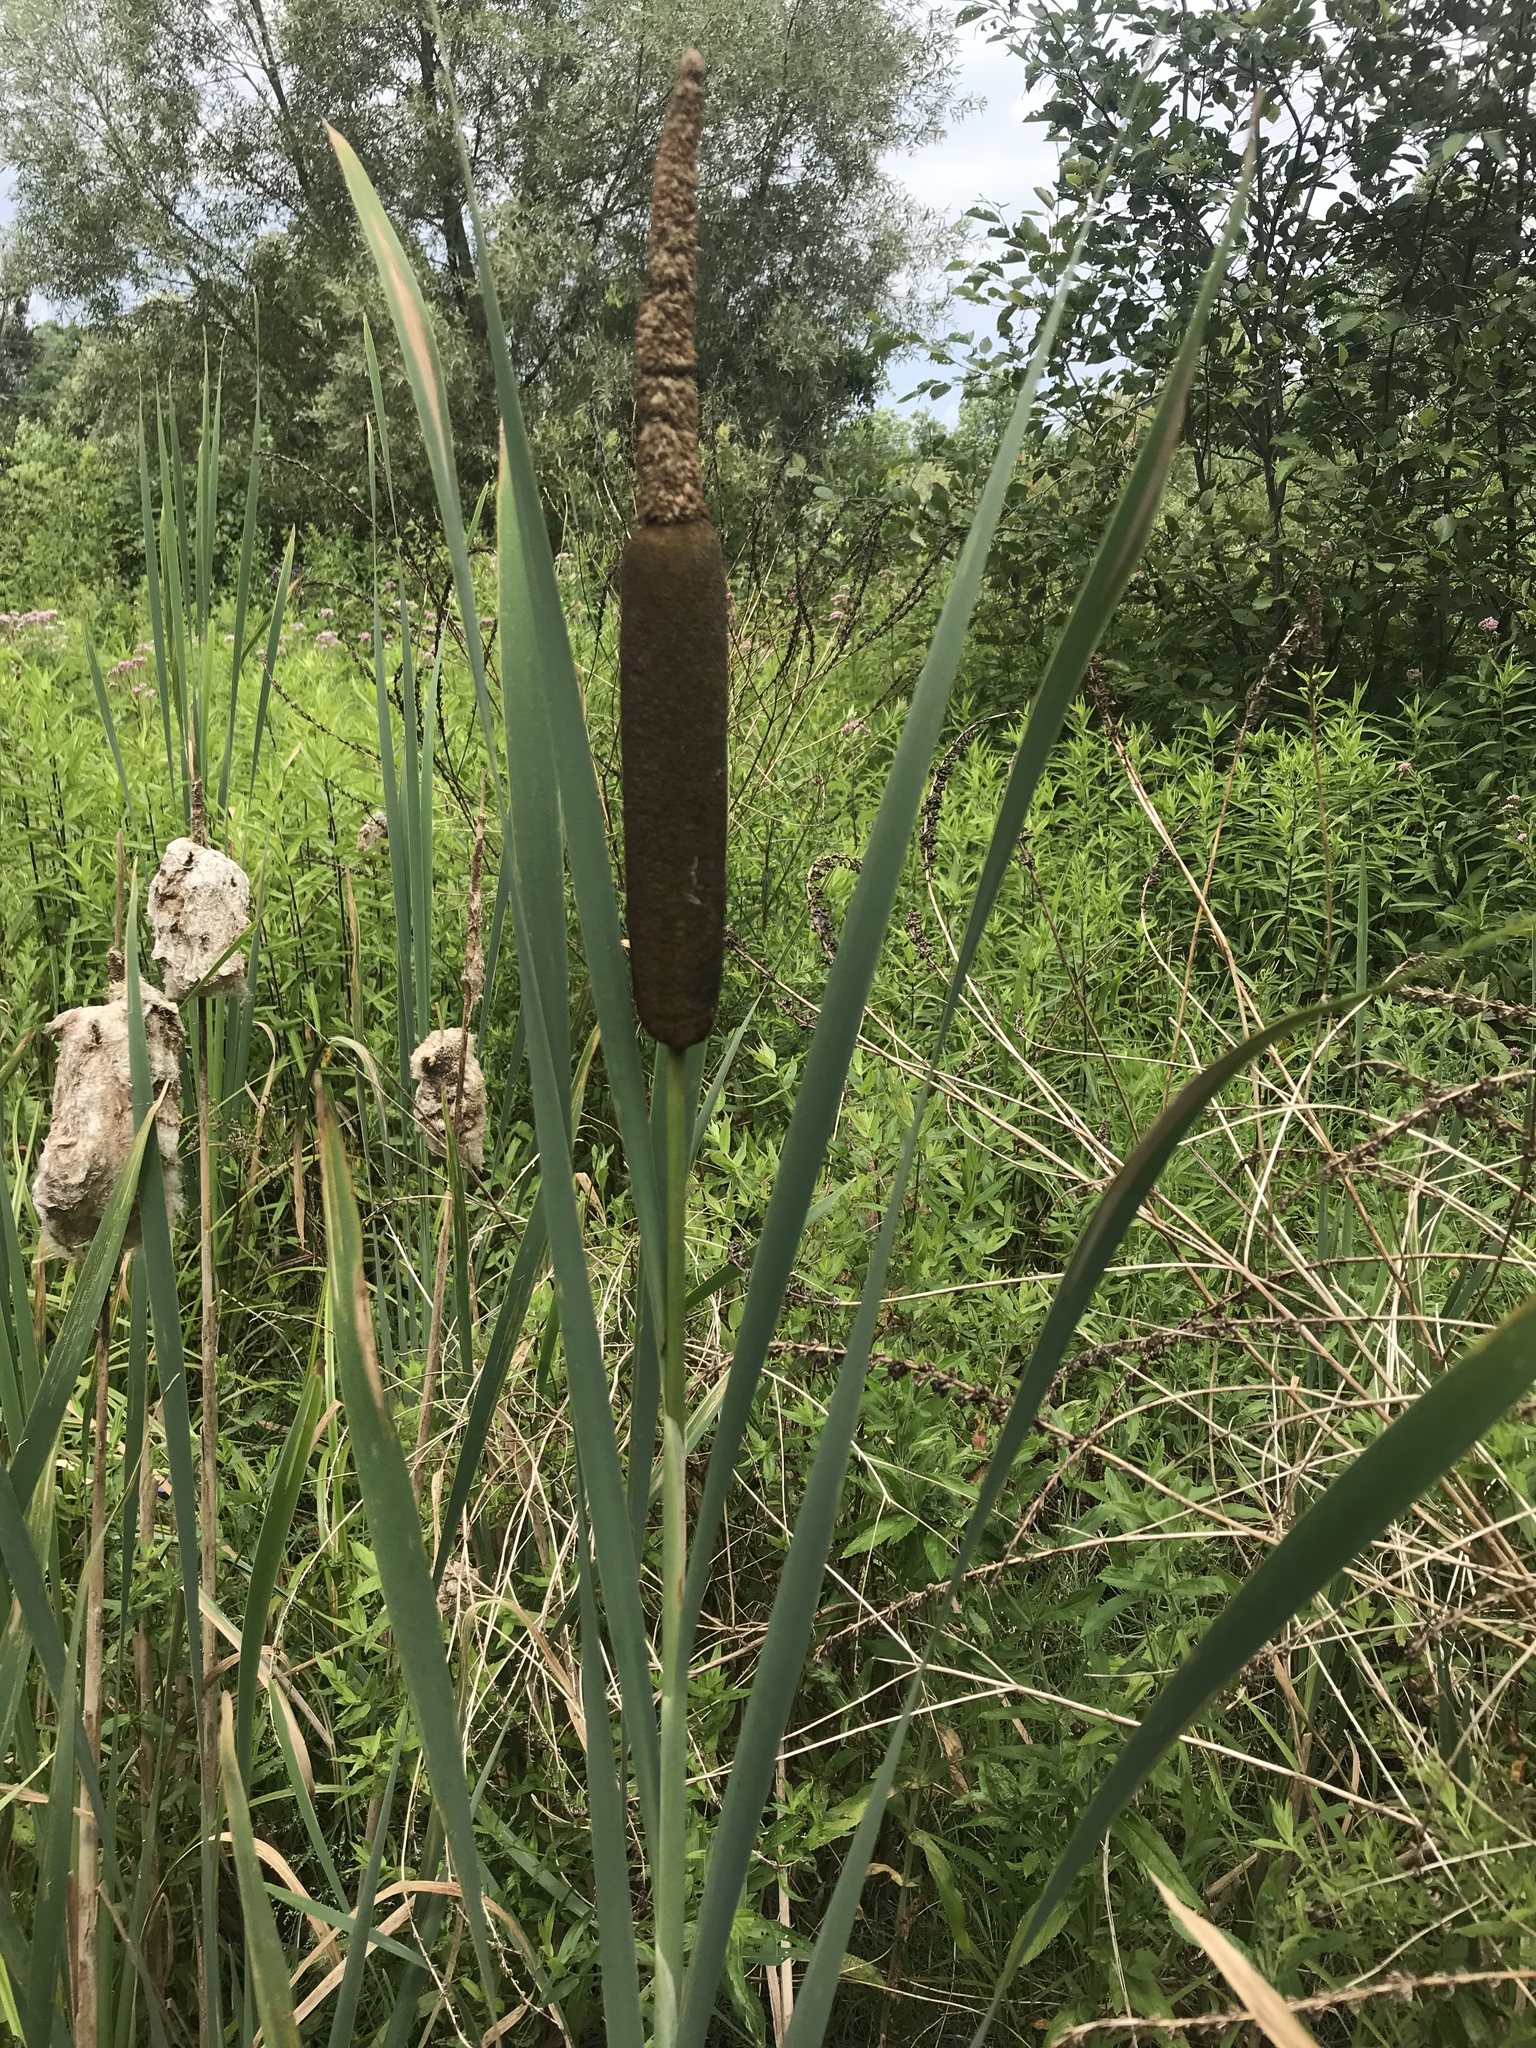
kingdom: Plantae
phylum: Tracheophyta
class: Liliopsida
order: Poales
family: Typhaceae
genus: Typha
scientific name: Typha latifolia
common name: Broadleaf cattail
